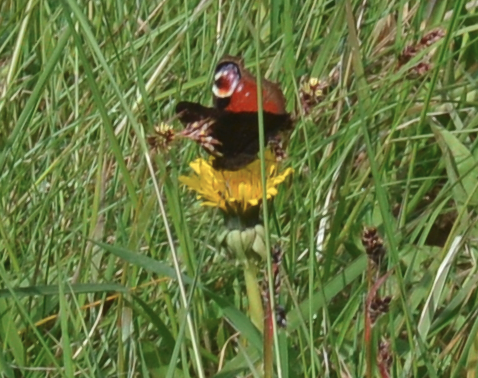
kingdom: Animalia
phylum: Arthropoda
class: Insecta
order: Lepidoptera
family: Nymphalidae
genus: Aglais
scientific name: Aglais io
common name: Peacock
